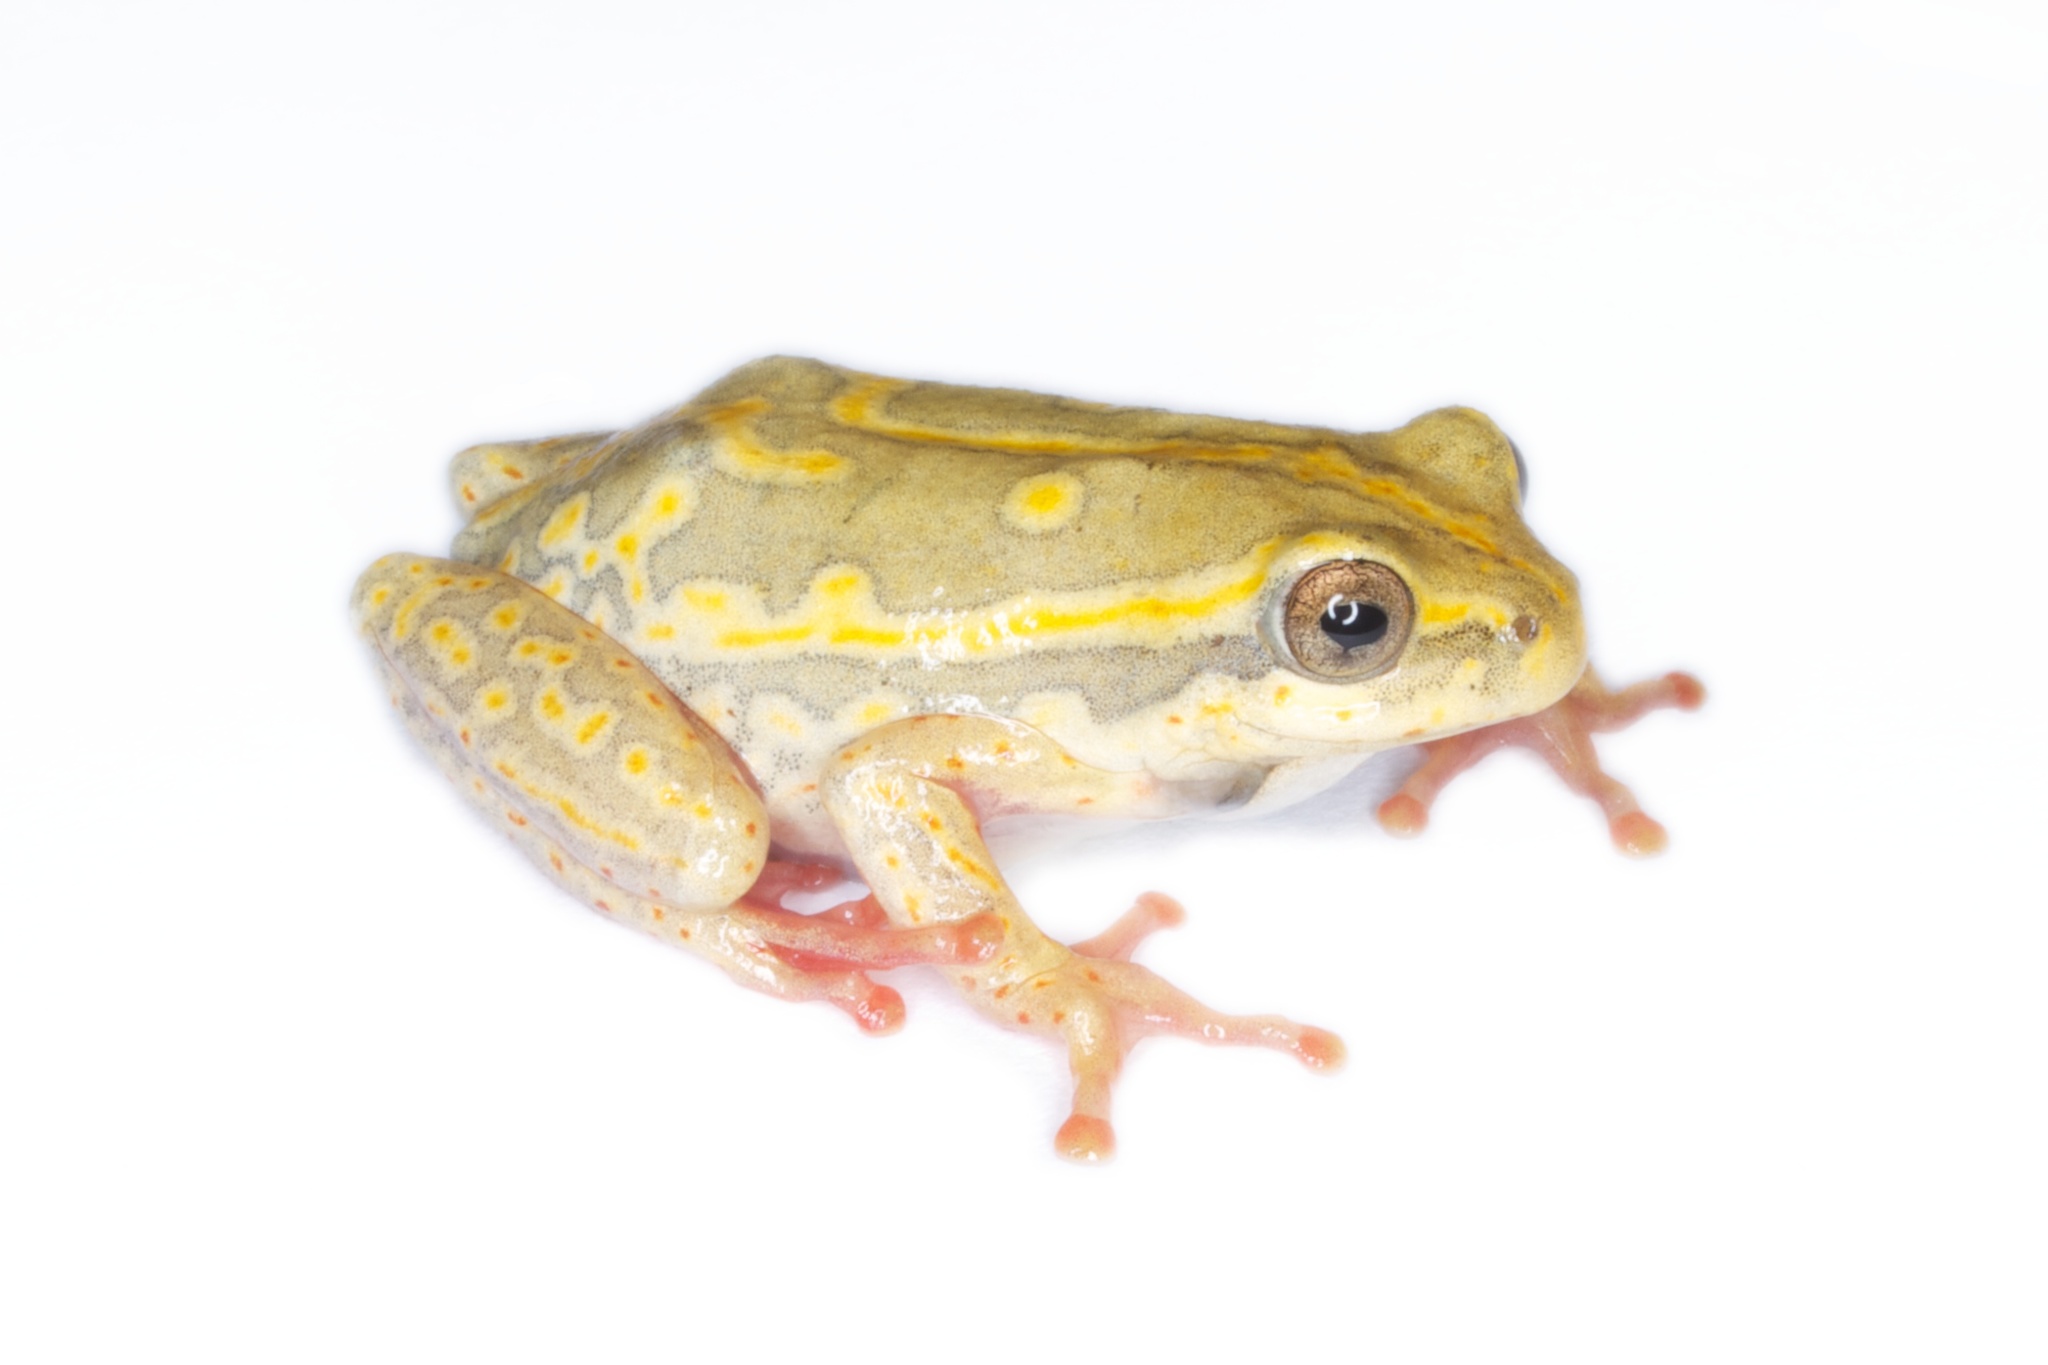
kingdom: Animalia
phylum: Chordata
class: Amphibia
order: Anura
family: Hyperoliidae
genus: Hyperolius
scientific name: Hyperolius marmoratus
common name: Painted reed frog
